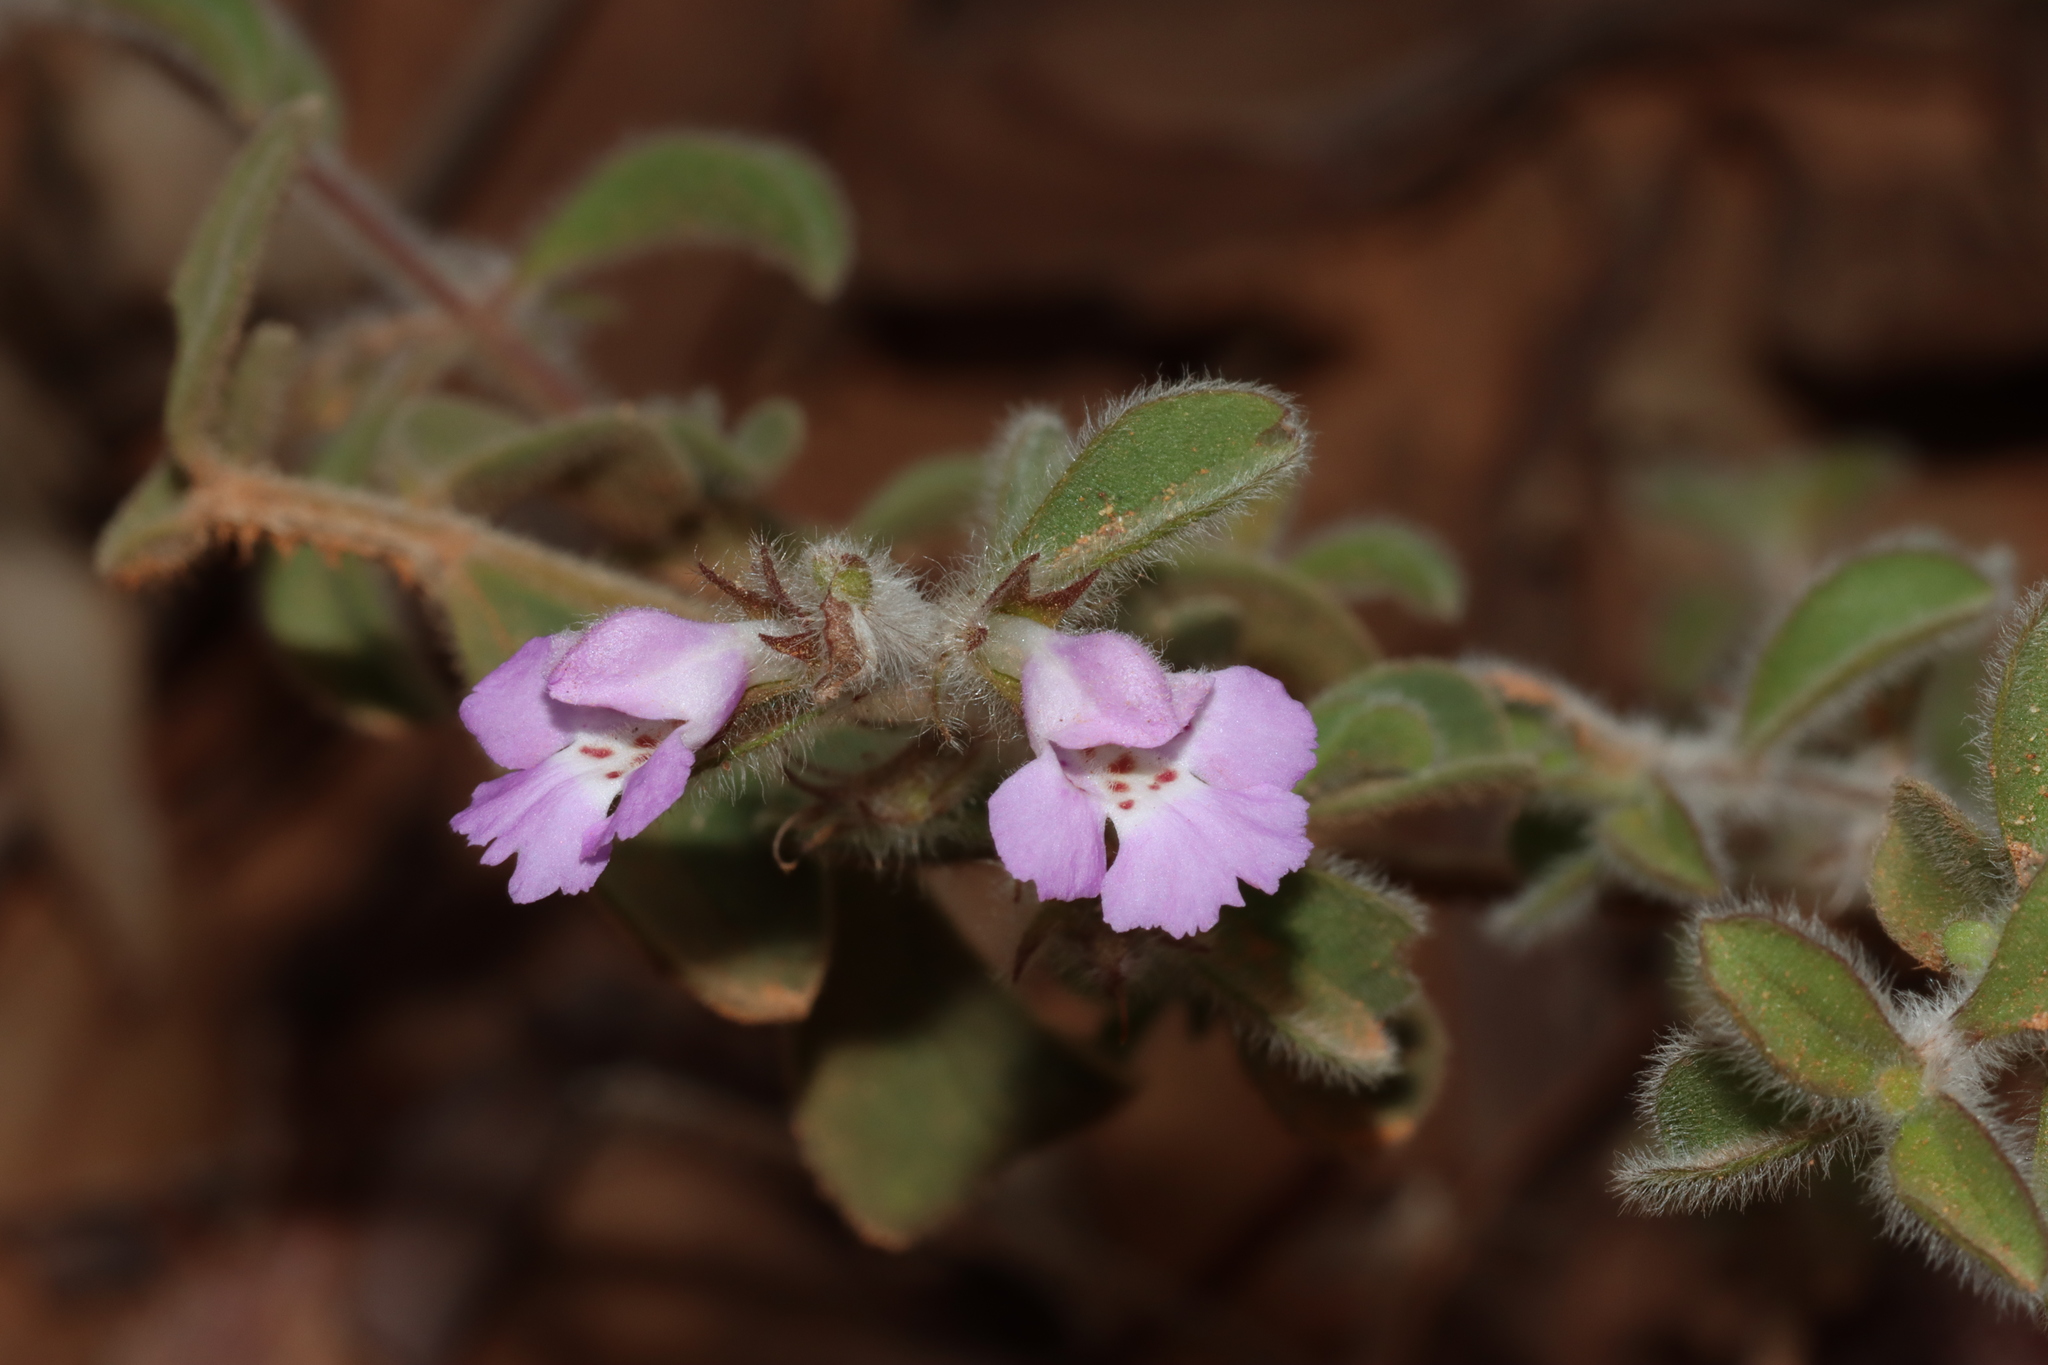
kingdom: Plantae
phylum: Tracheophyta
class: Magnoliopsida
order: Lamiales
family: Lamiaceae
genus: Hemigenia
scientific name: Hemigenia incana
